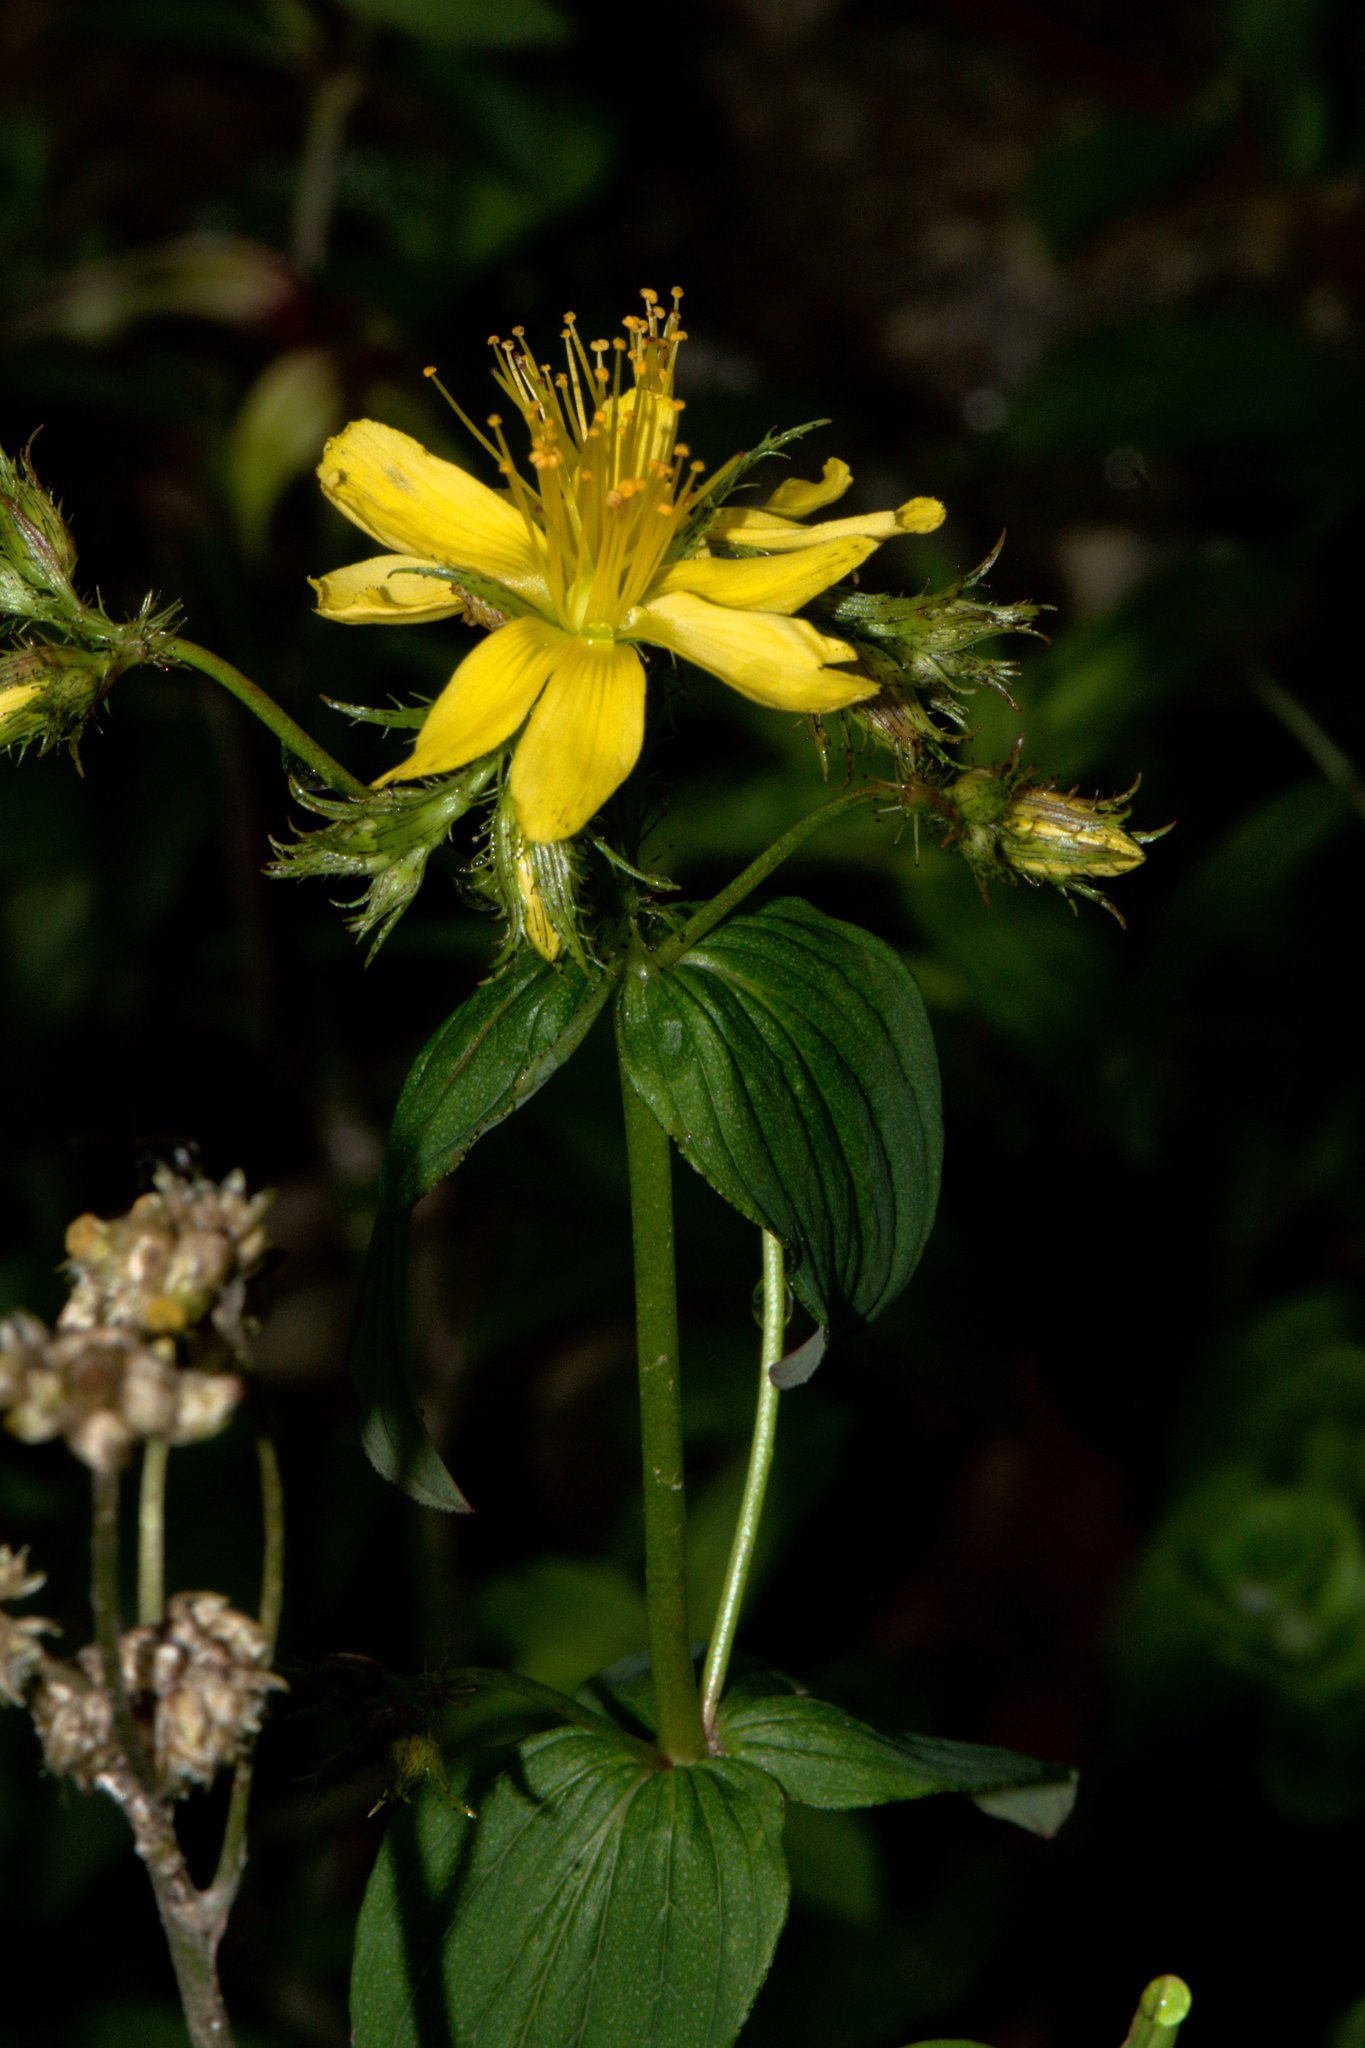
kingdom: Plantae
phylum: Tracheophyta
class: Magnoliopsida
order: Malpighiales
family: Hypericaceae
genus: Hypericum
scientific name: Hypericum elodeoides
